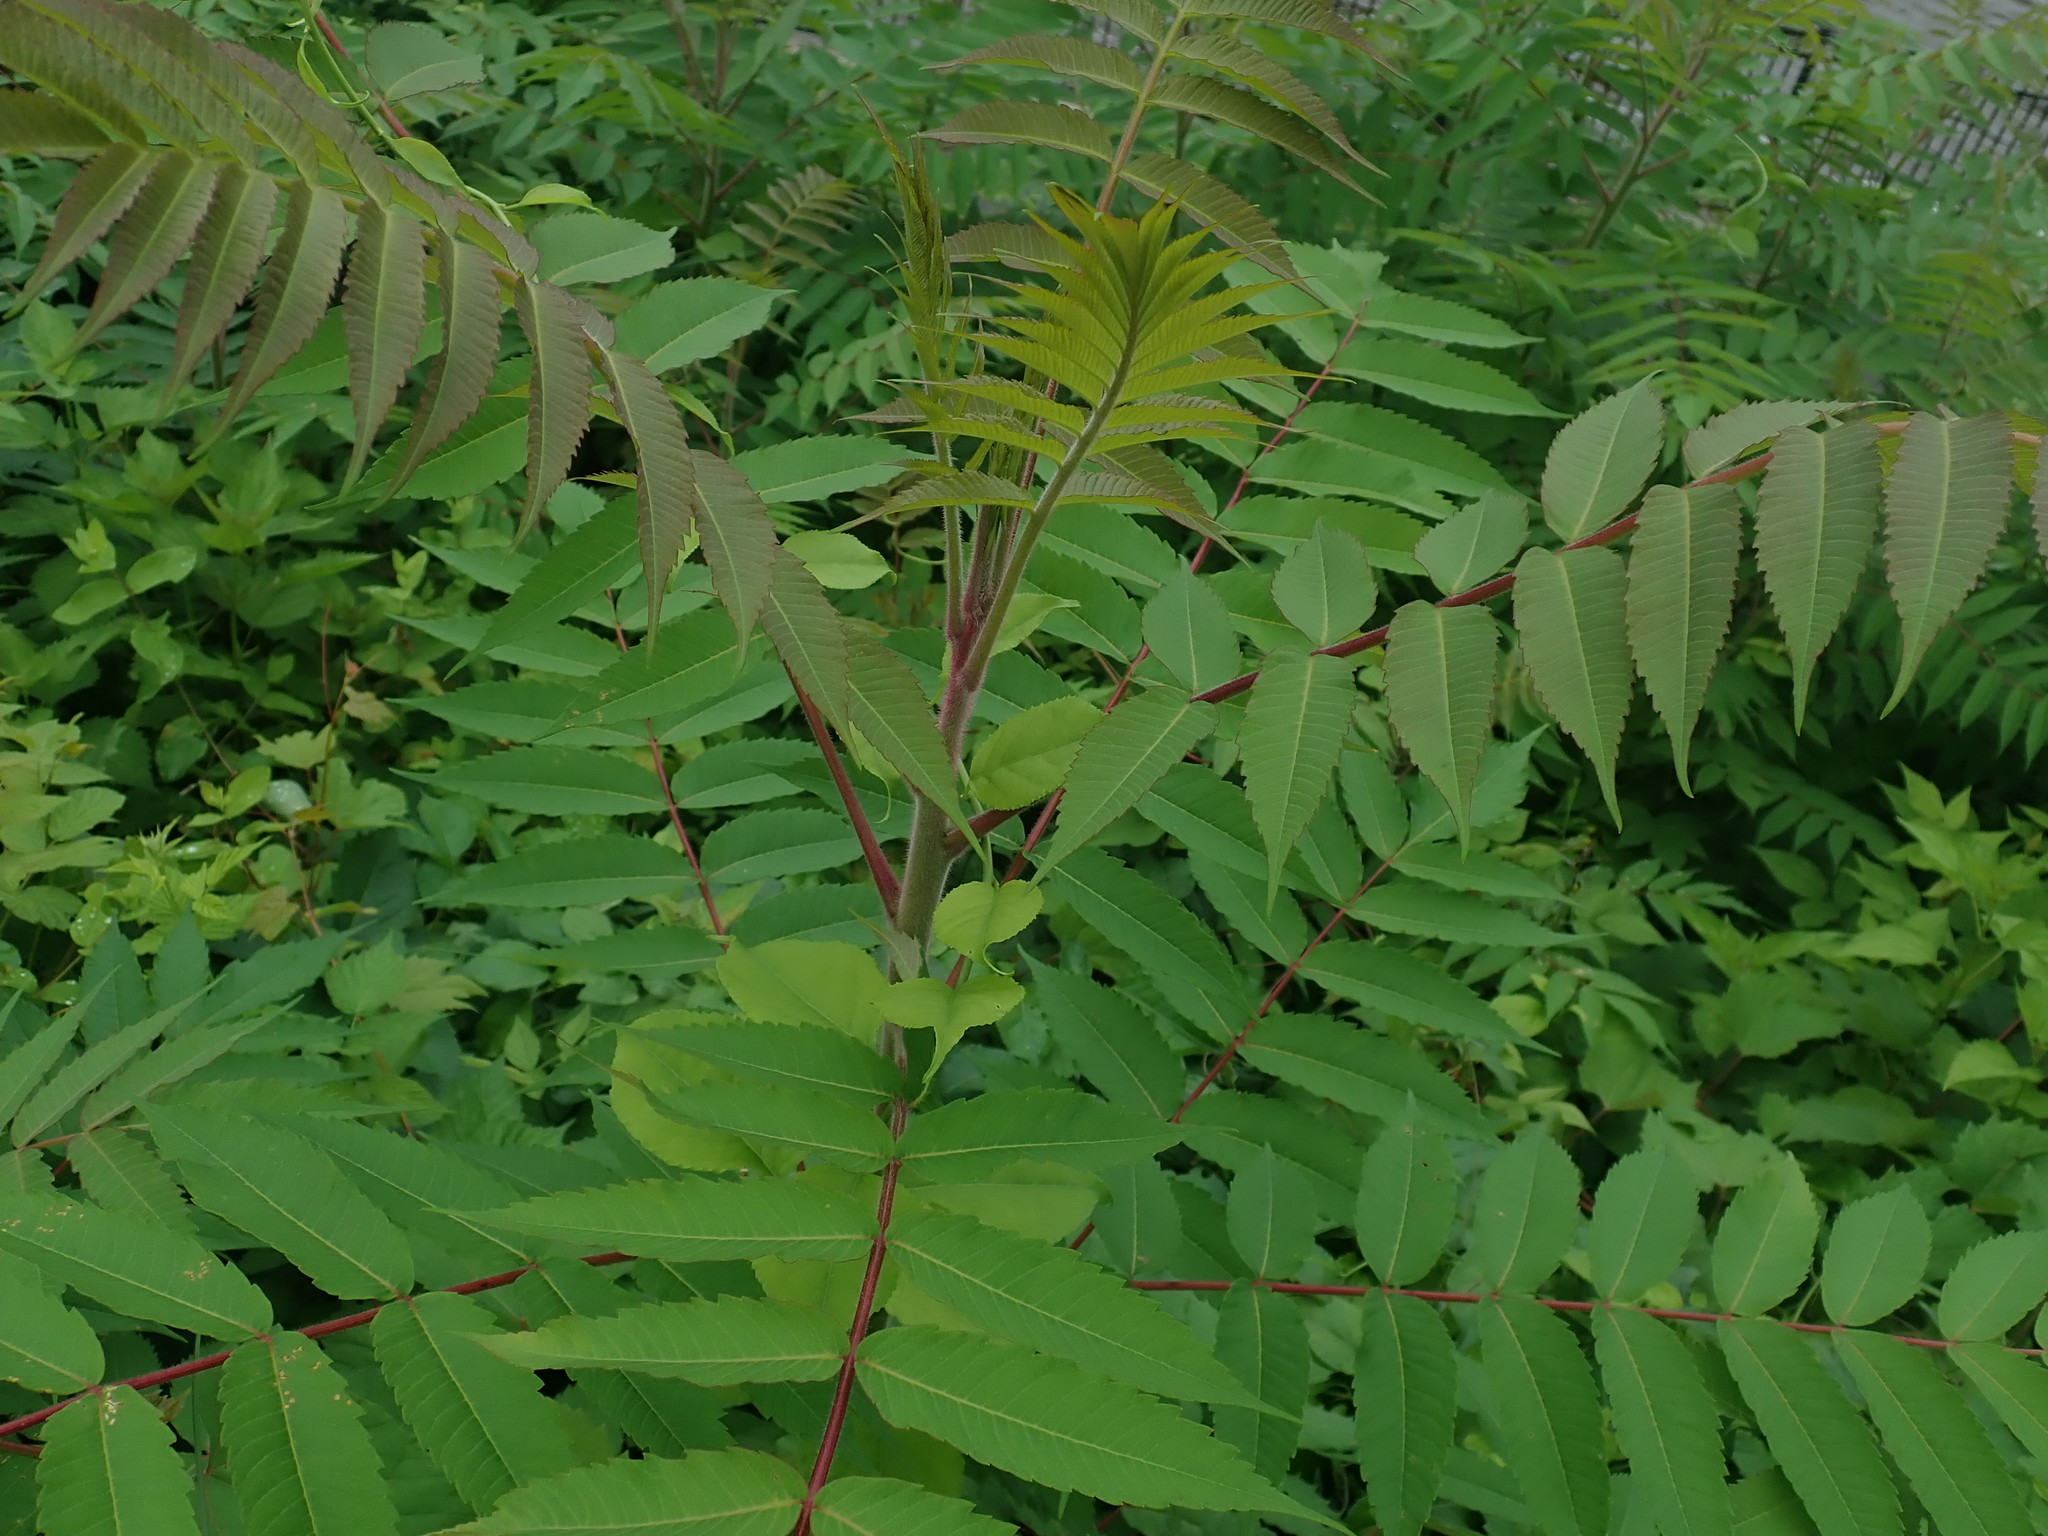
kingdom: Plantae
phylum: Tracheophyta
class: Magnoliopsida
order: Sapindales
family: Anacardiaceae
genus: Rhus
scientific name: Rhus typhina
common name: Staghorn sumac
